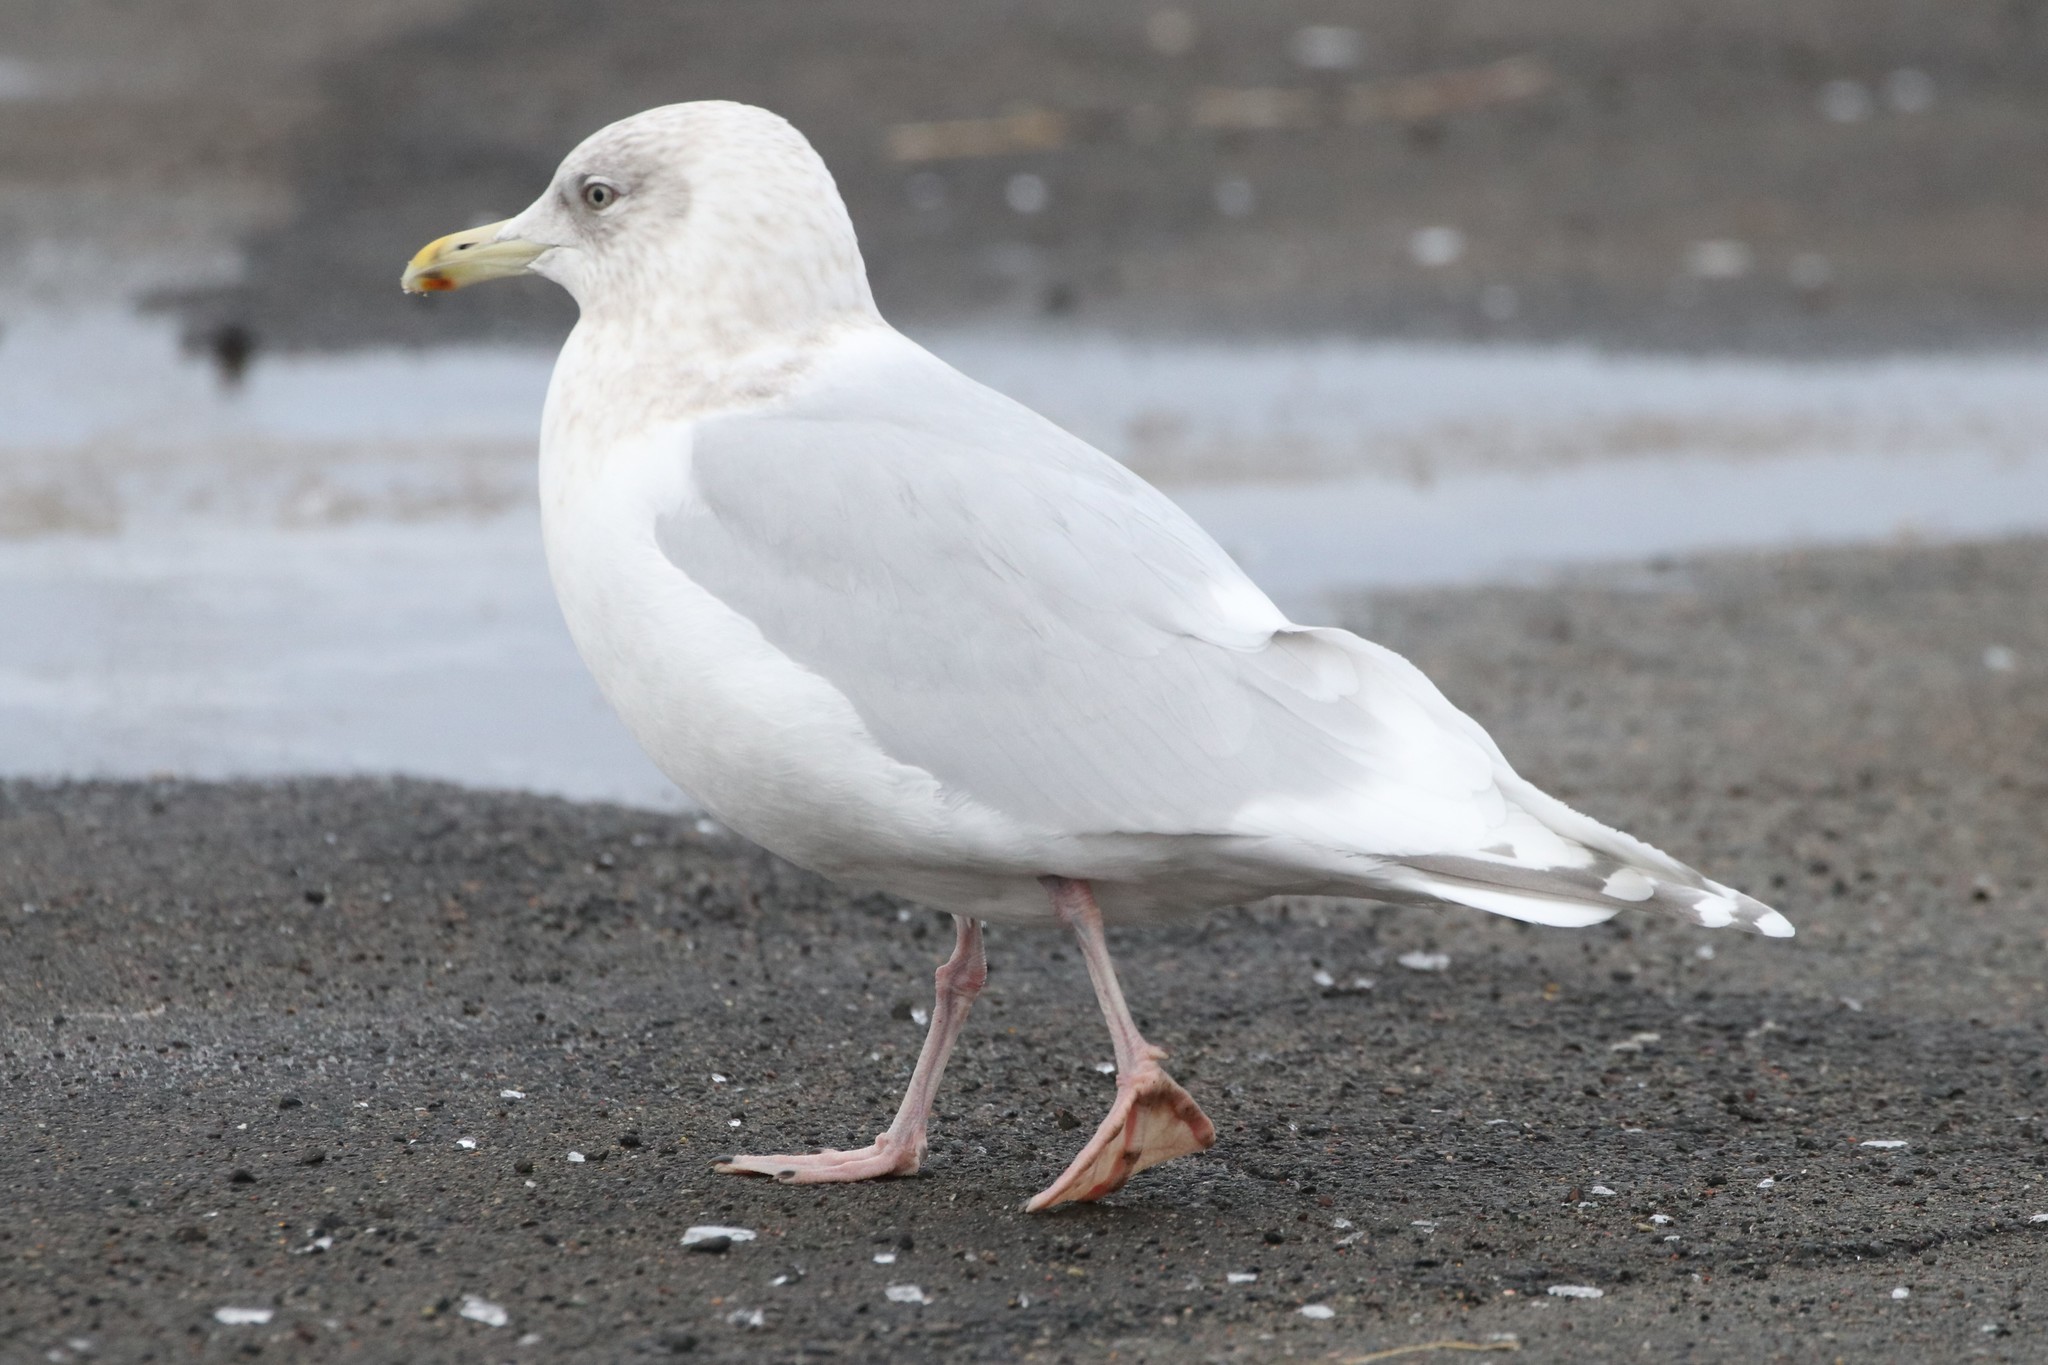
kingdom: Animalia
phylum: Chordata
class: Aves
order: Charadriiformes
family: Laridae
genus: Larus
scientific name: Larus glaucoides
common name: Iceland gull
